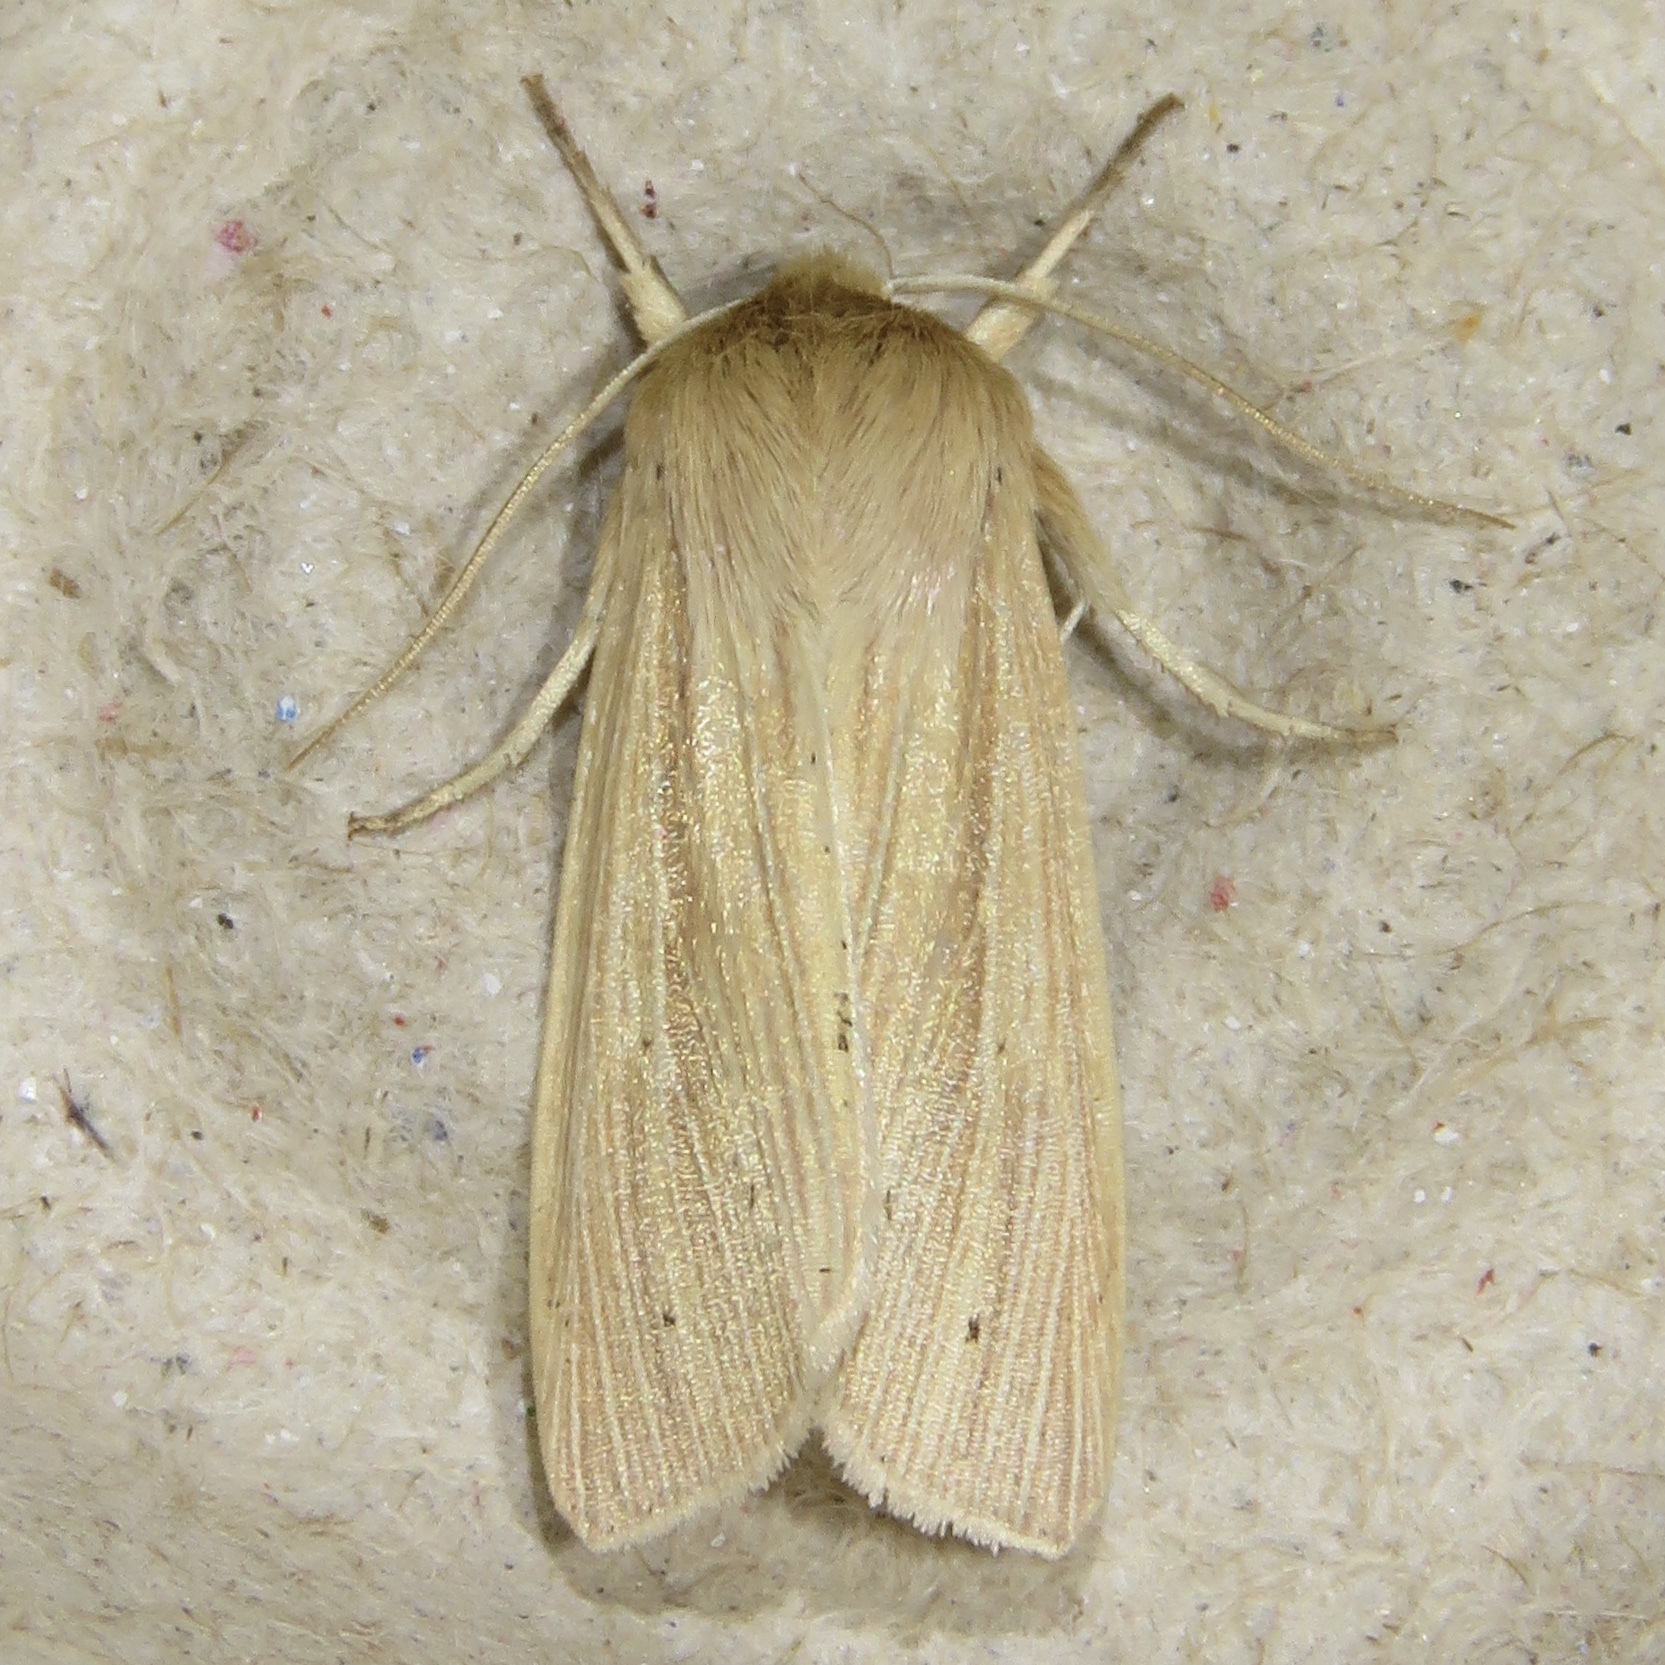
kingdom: Animalia
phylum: Arthropoda
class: Insecta
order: Lepidoptera
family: Noctuidae
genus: Mythimna
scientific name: Mythimna oxygala
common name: Lesser wainscot
